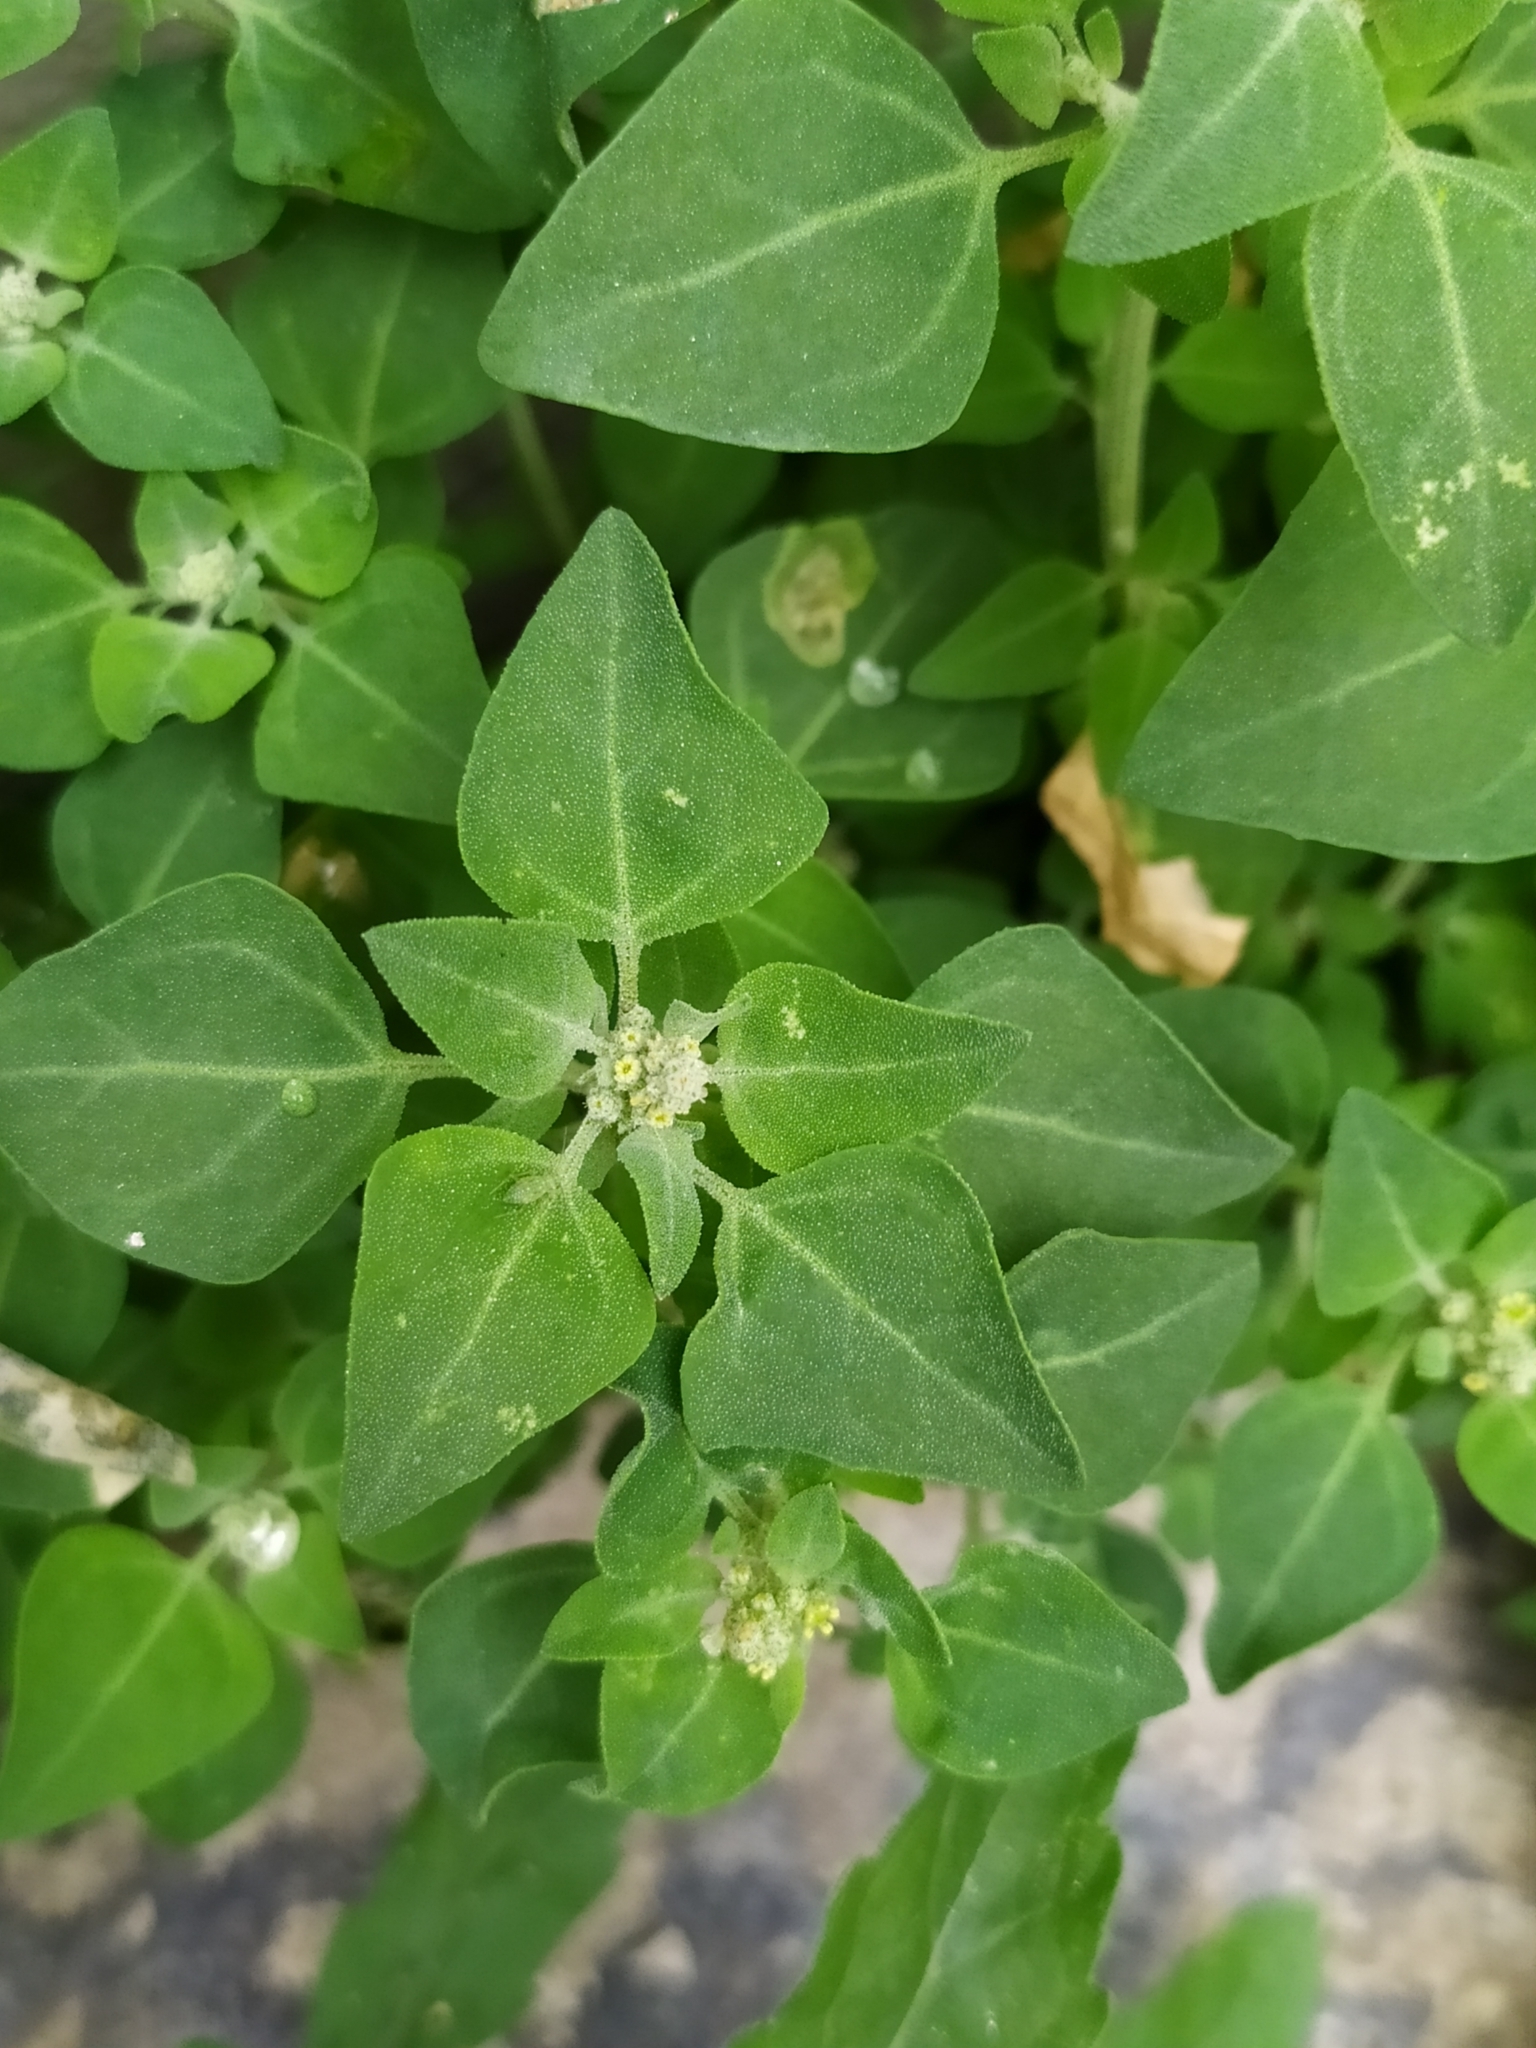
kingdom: Plantae
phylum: Tracheophyta
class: Magnoliopsida
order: Caryophyllales
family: Amaranthaceae
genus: Chenopodium
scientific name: Chenopodium vulvaria
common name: Stinking goosefoot
